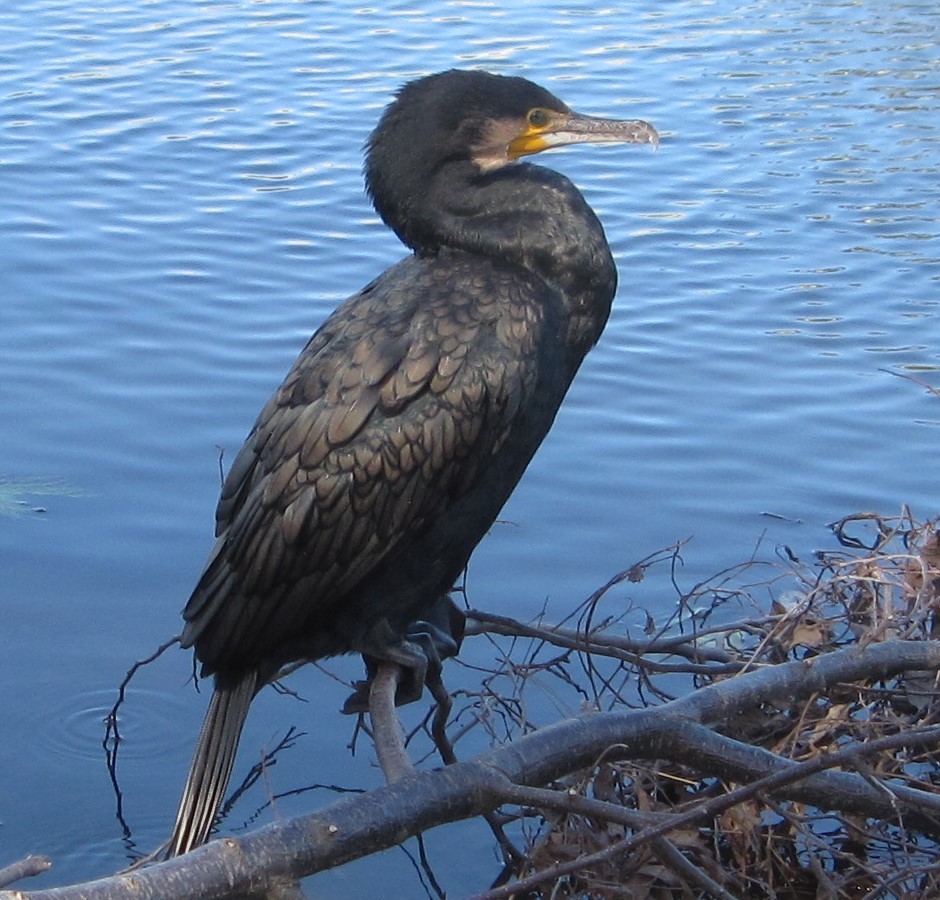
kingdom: Animalia
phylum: Chordata
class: Aves
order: Suliformes
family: Phalacrocoracidae
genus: Phalacrocorax
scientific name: Phalacrocorax carbo
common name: Great cormorant
